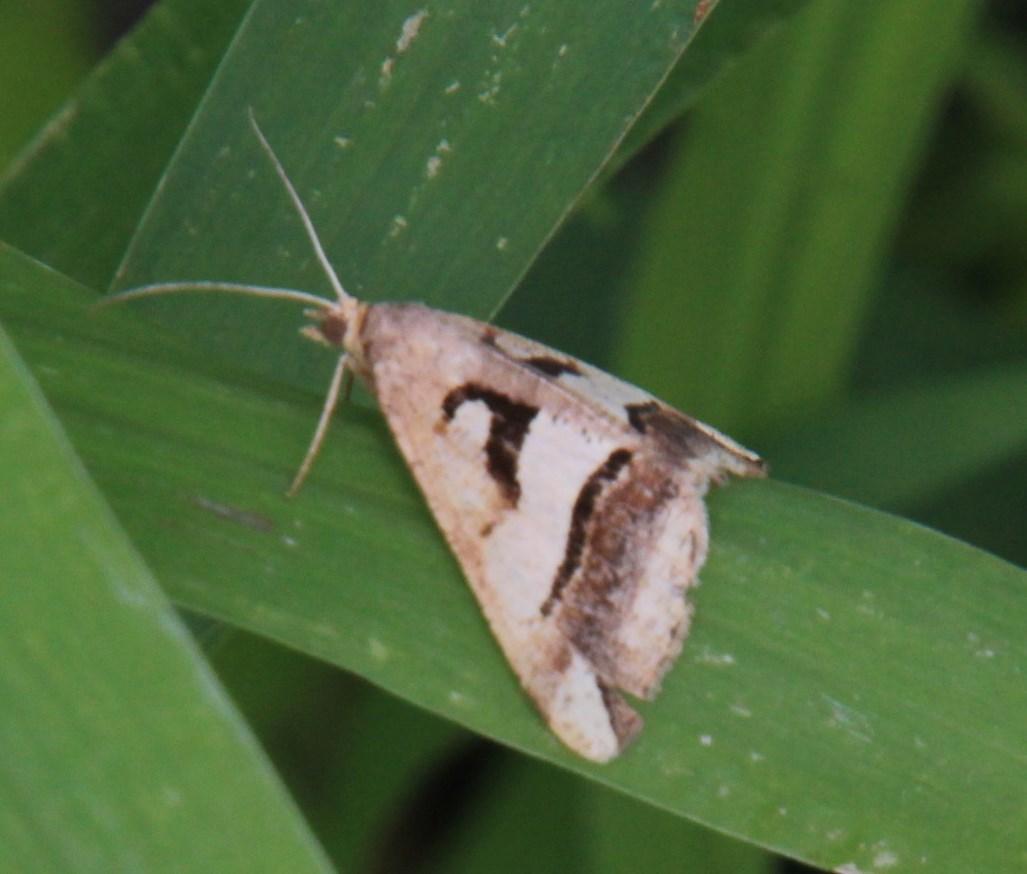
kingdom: Animalia
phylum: Arthropoda
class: Insecta
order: Lepidoptera
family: Geometridae
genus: Chiasmia
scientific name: Chiasmia observata
